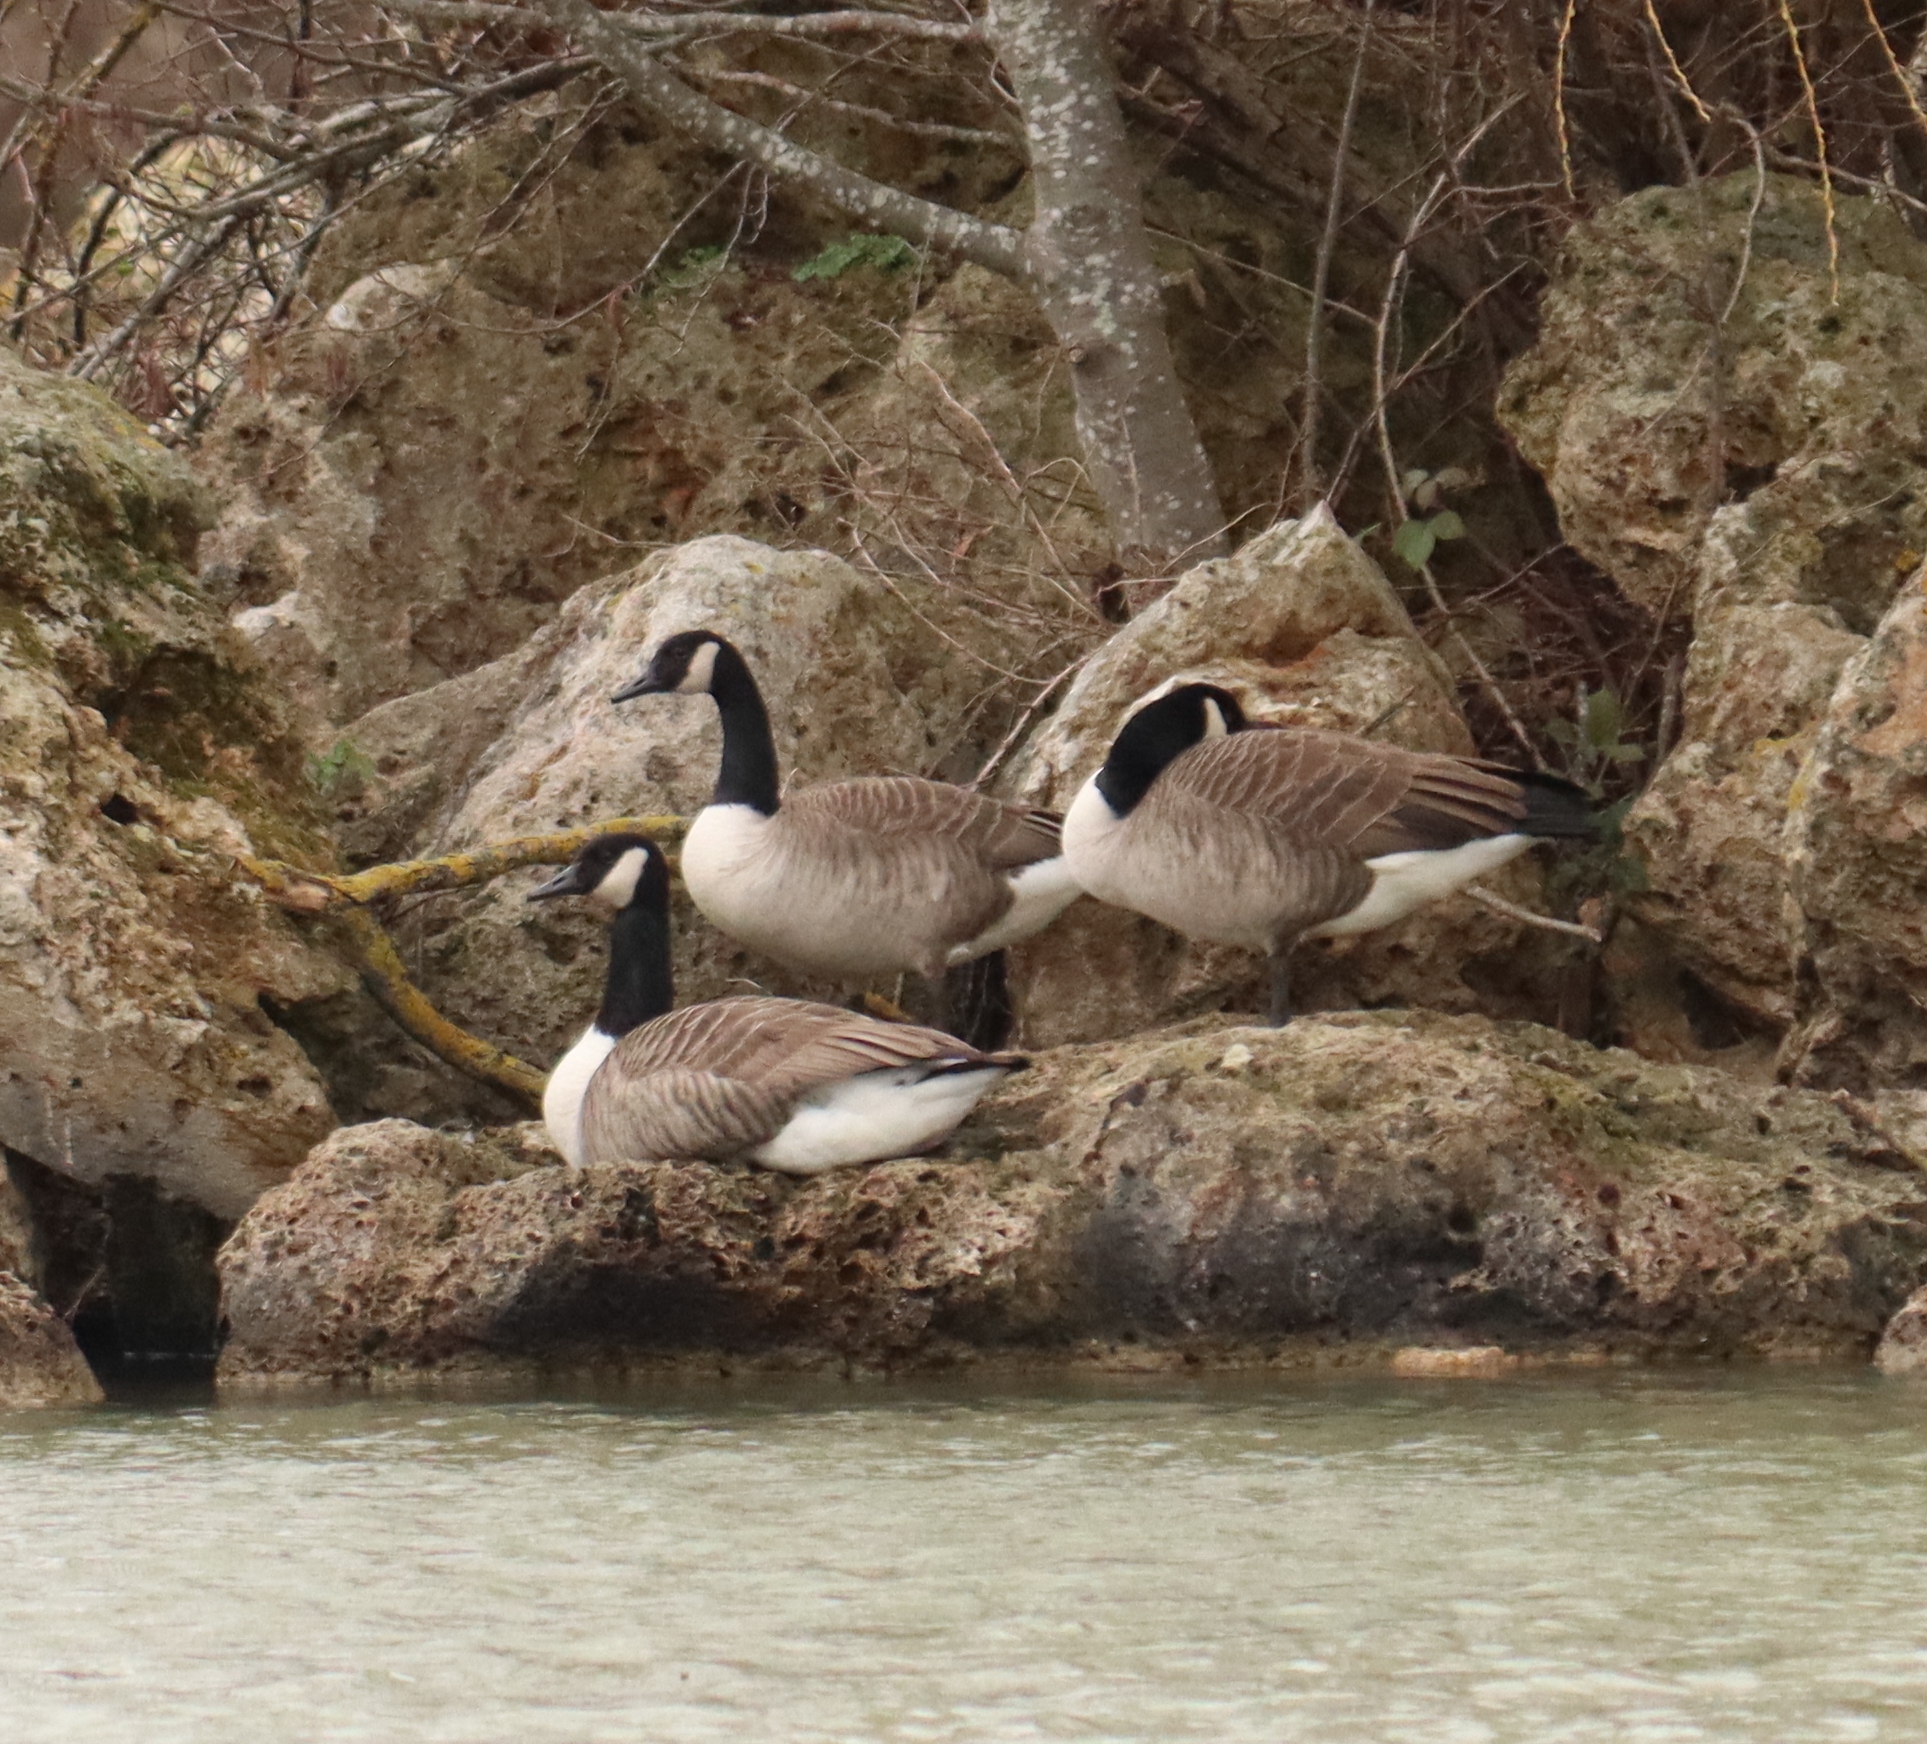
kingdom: Animalia
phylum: Chordata
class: Aves
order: Anseriformes
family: Anatidae
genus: Branta
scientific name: Branta canadensis
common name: Canada goose
